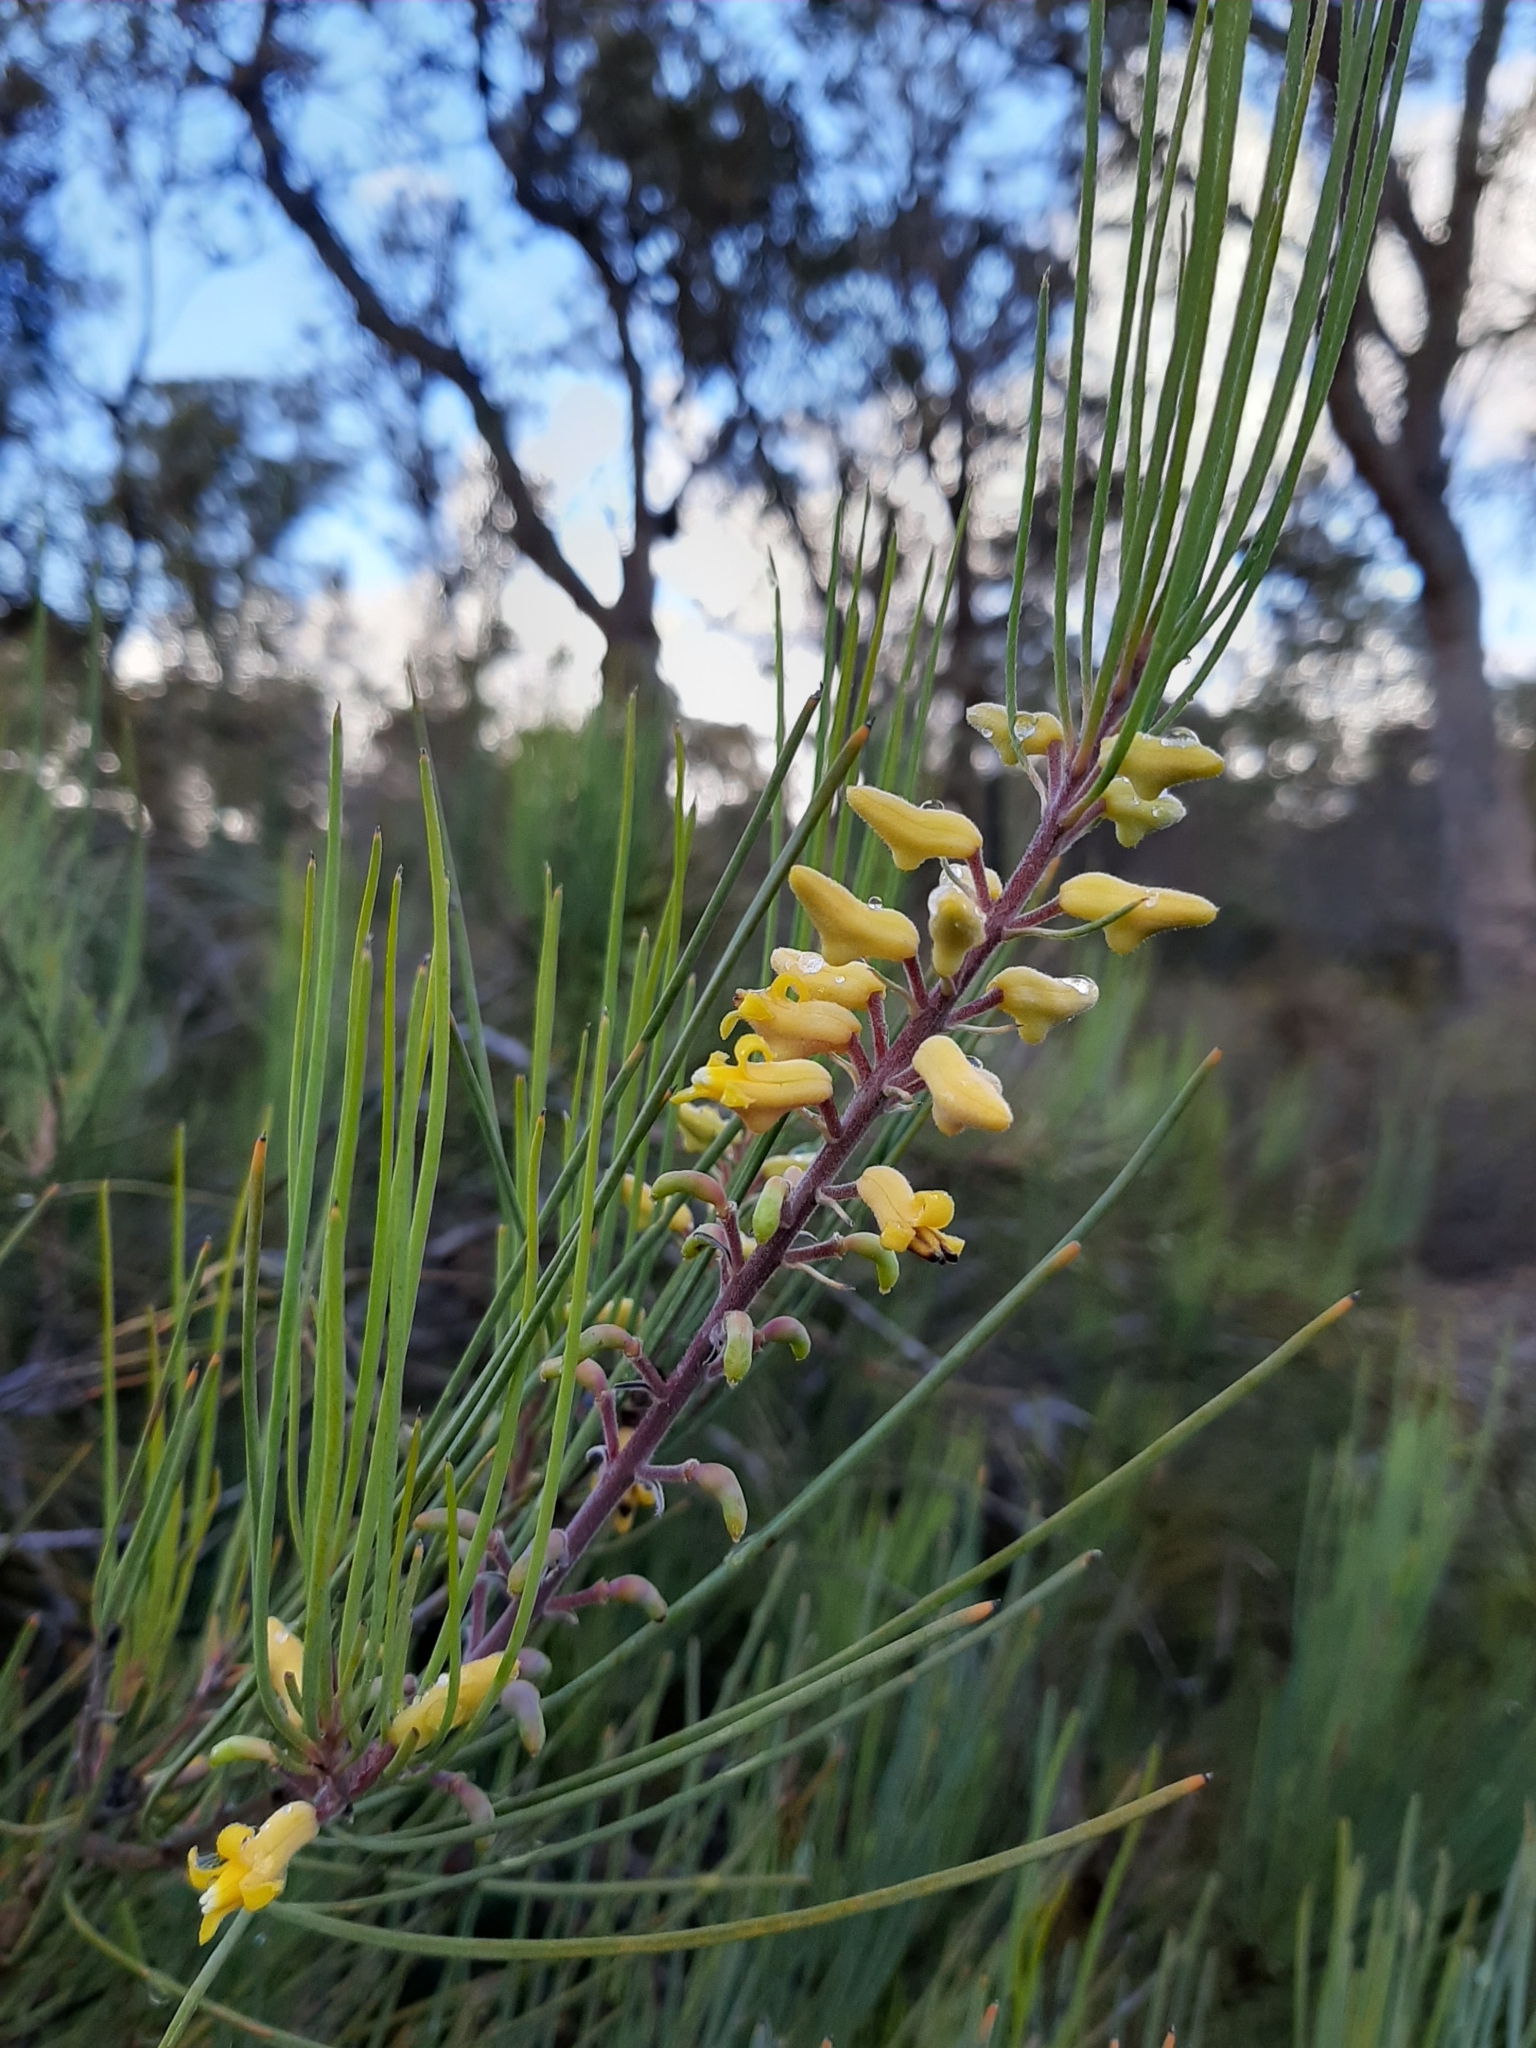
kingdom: Plantae
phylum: Tracheophyta
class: Magnoliopsida
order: Proteales
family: Proteaceae
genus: Persoonia
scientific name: Persoonia saccata
